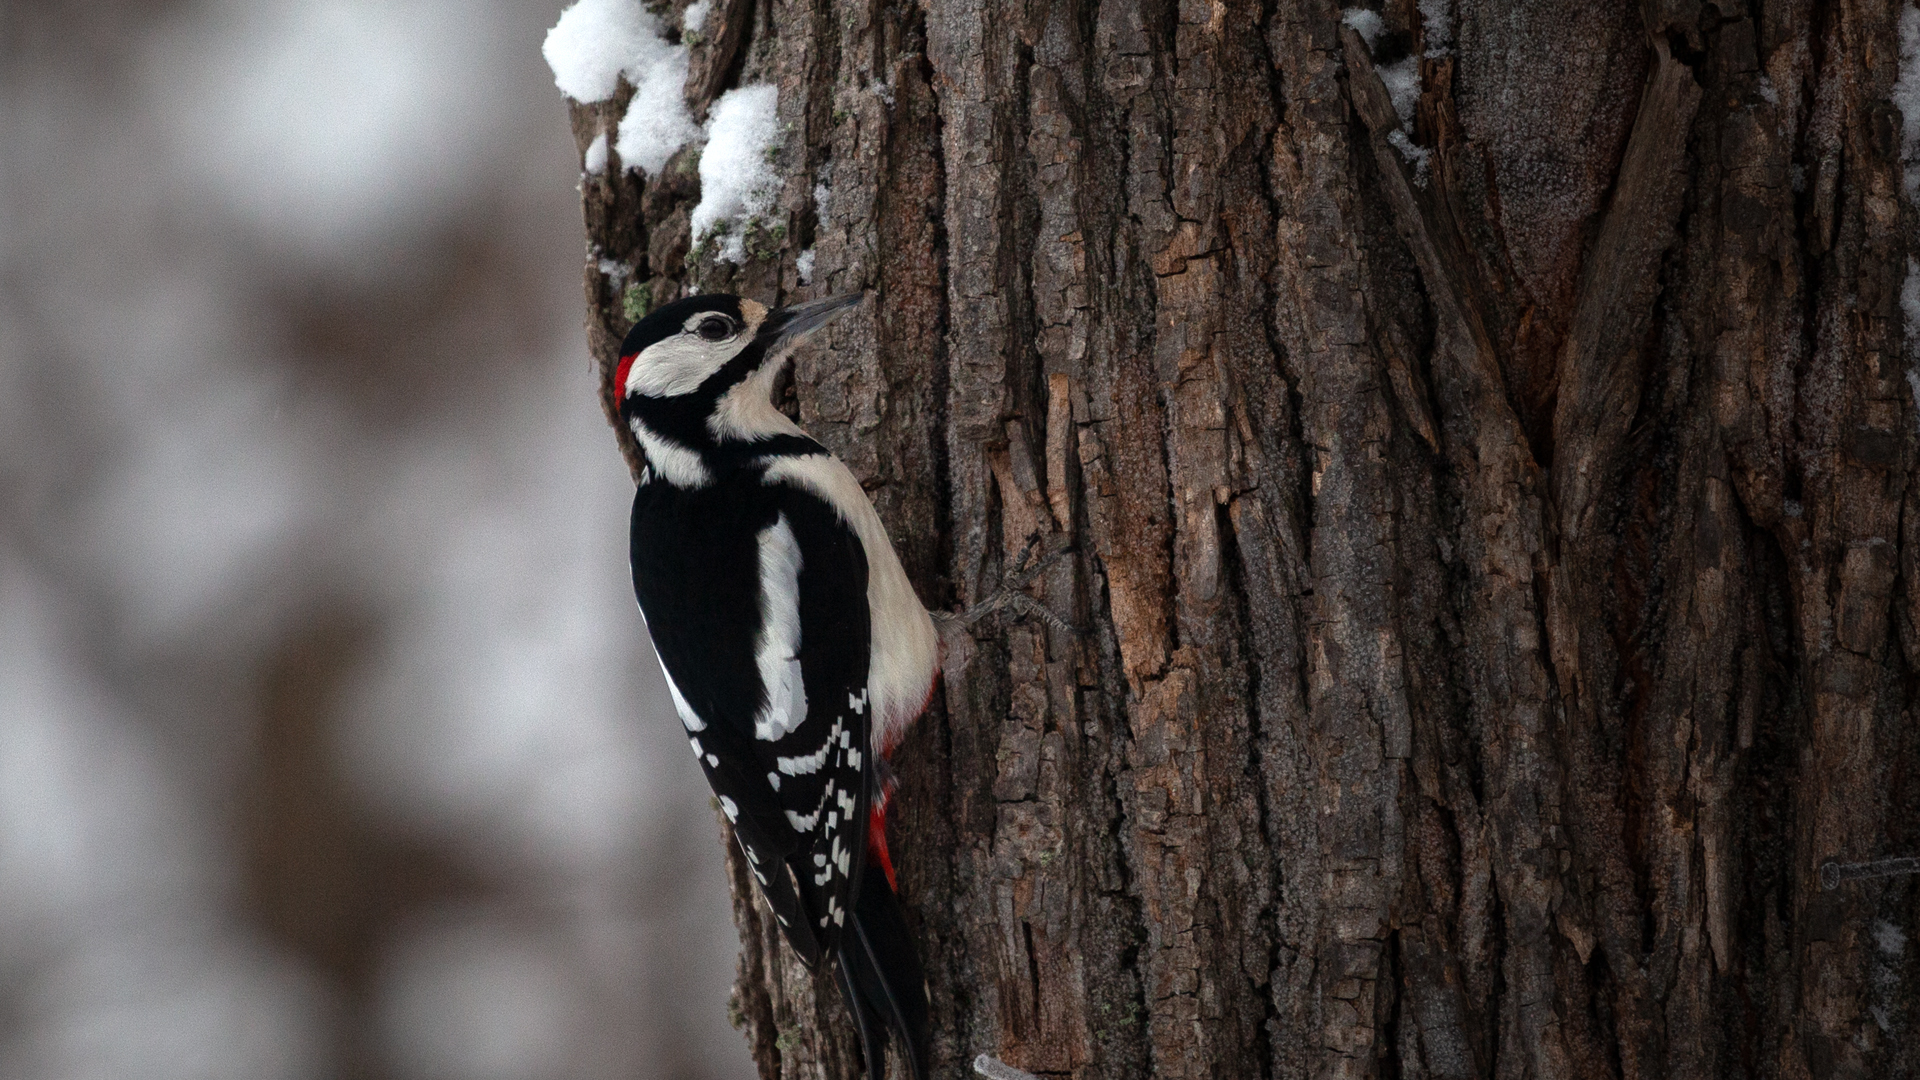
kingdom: Animalia
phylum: Chordata
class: Aves
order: Piciformes
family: Picidae
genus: Dendrocopos
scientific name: Dendrocopos major
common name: Great spotted woodpecker
